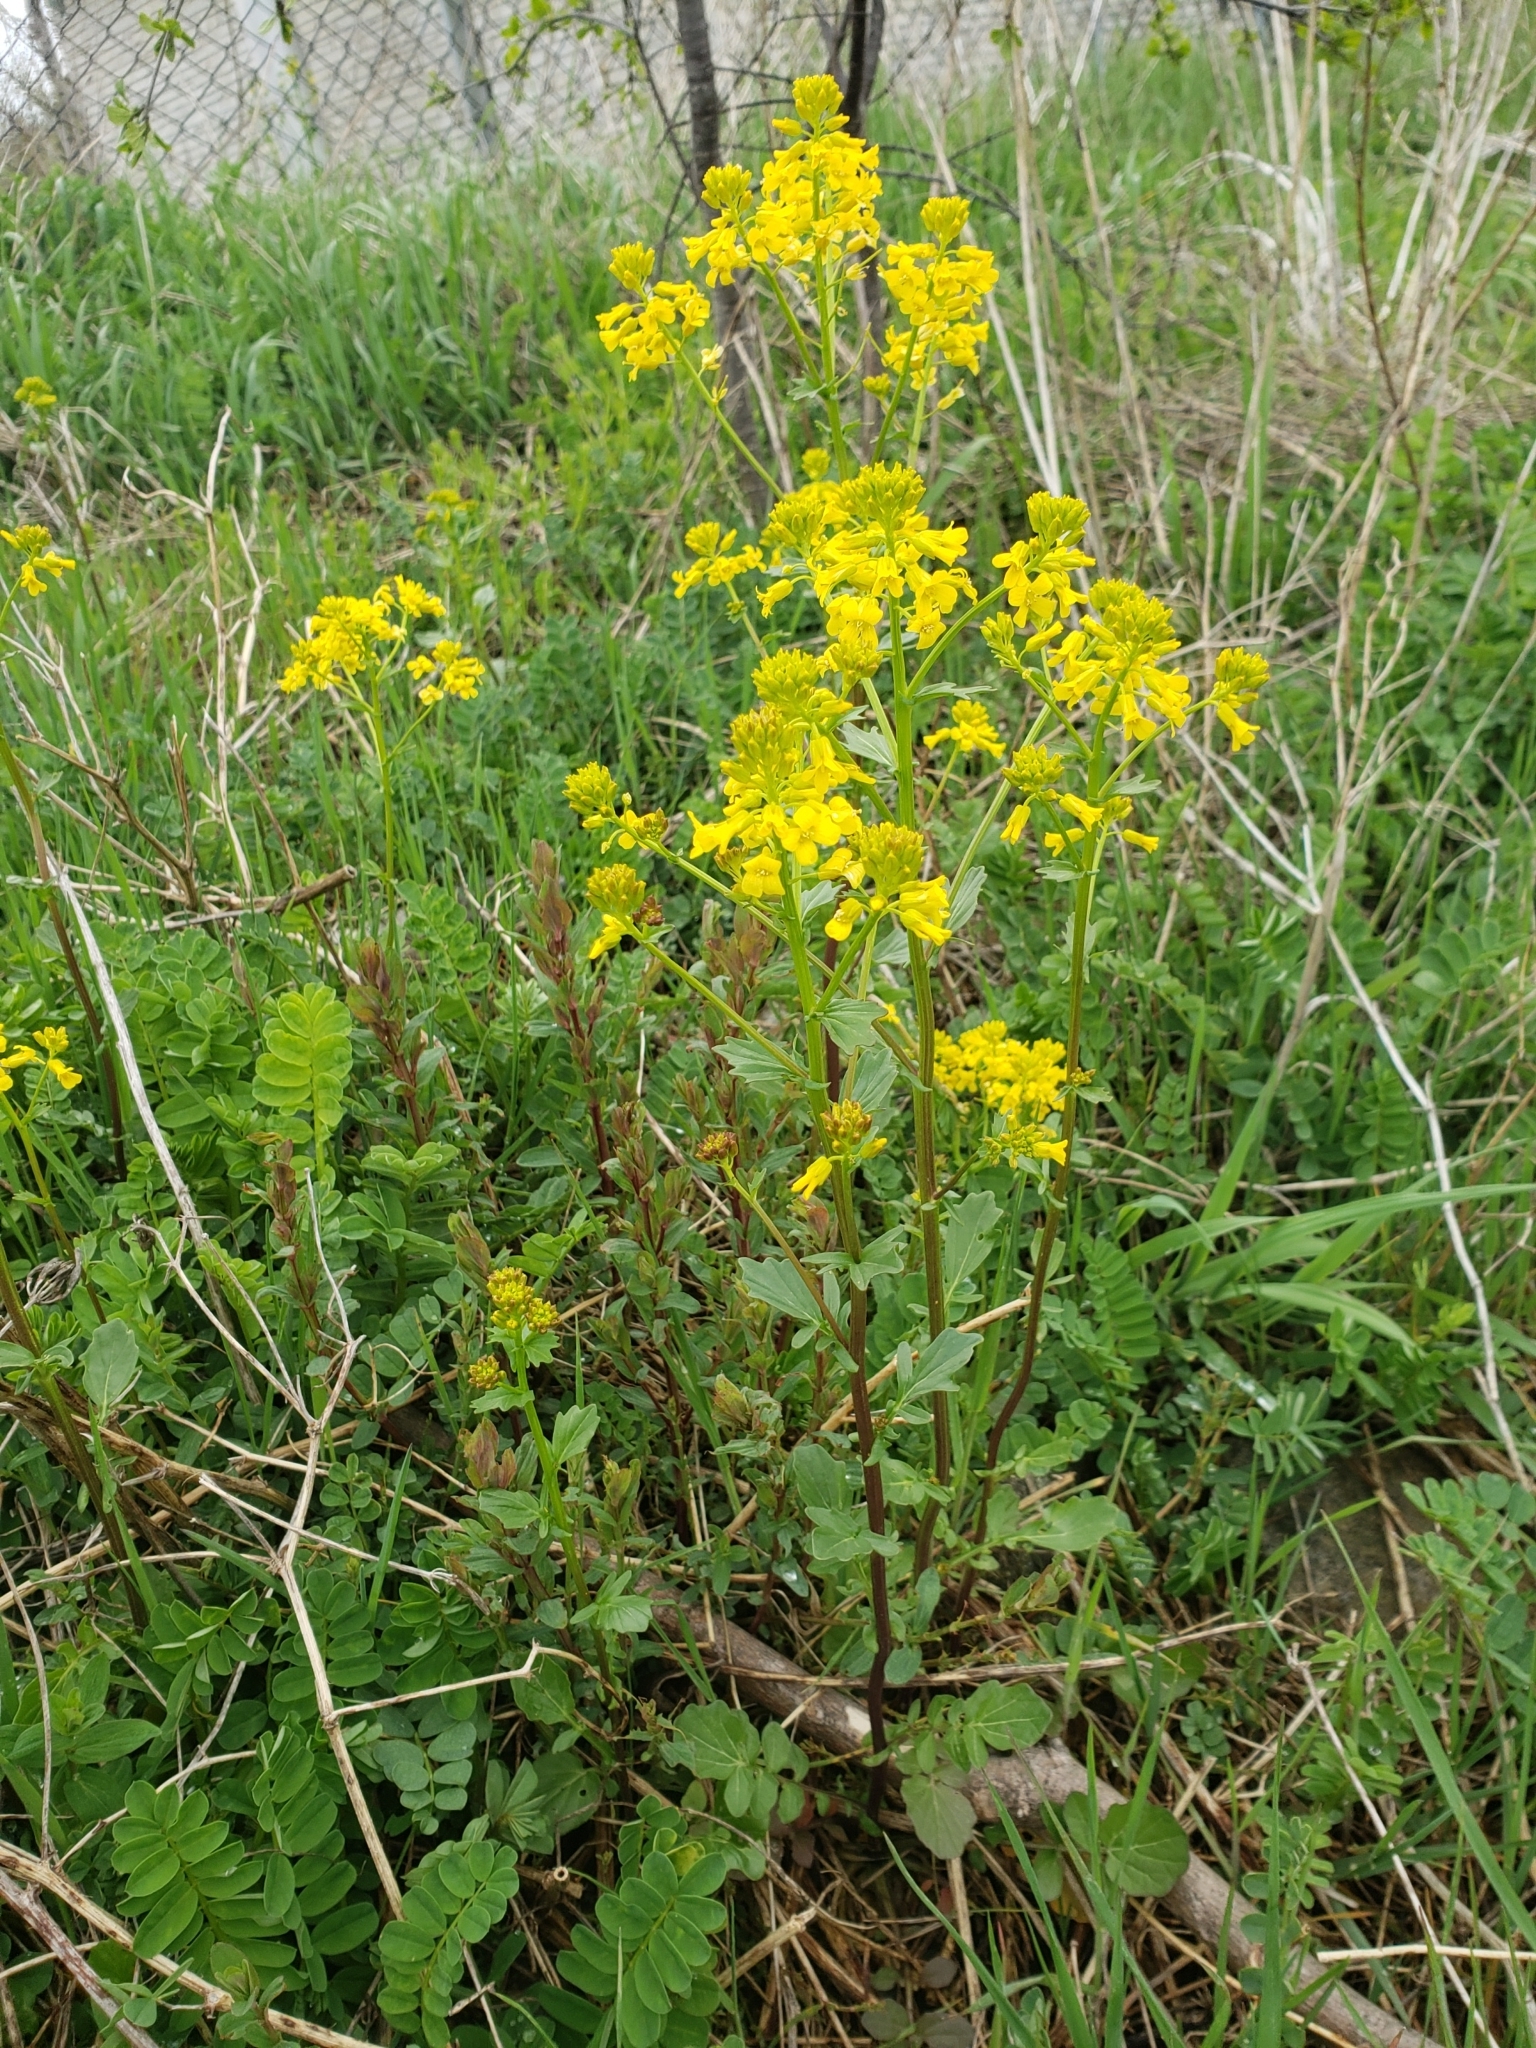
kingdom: Plantae
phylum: Tracheophyta
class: Magnoliopsida
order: Brassicales
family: Brassicaceae
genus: Barbarea
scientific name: Barbarea vulgaris
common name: Cressy-greens
